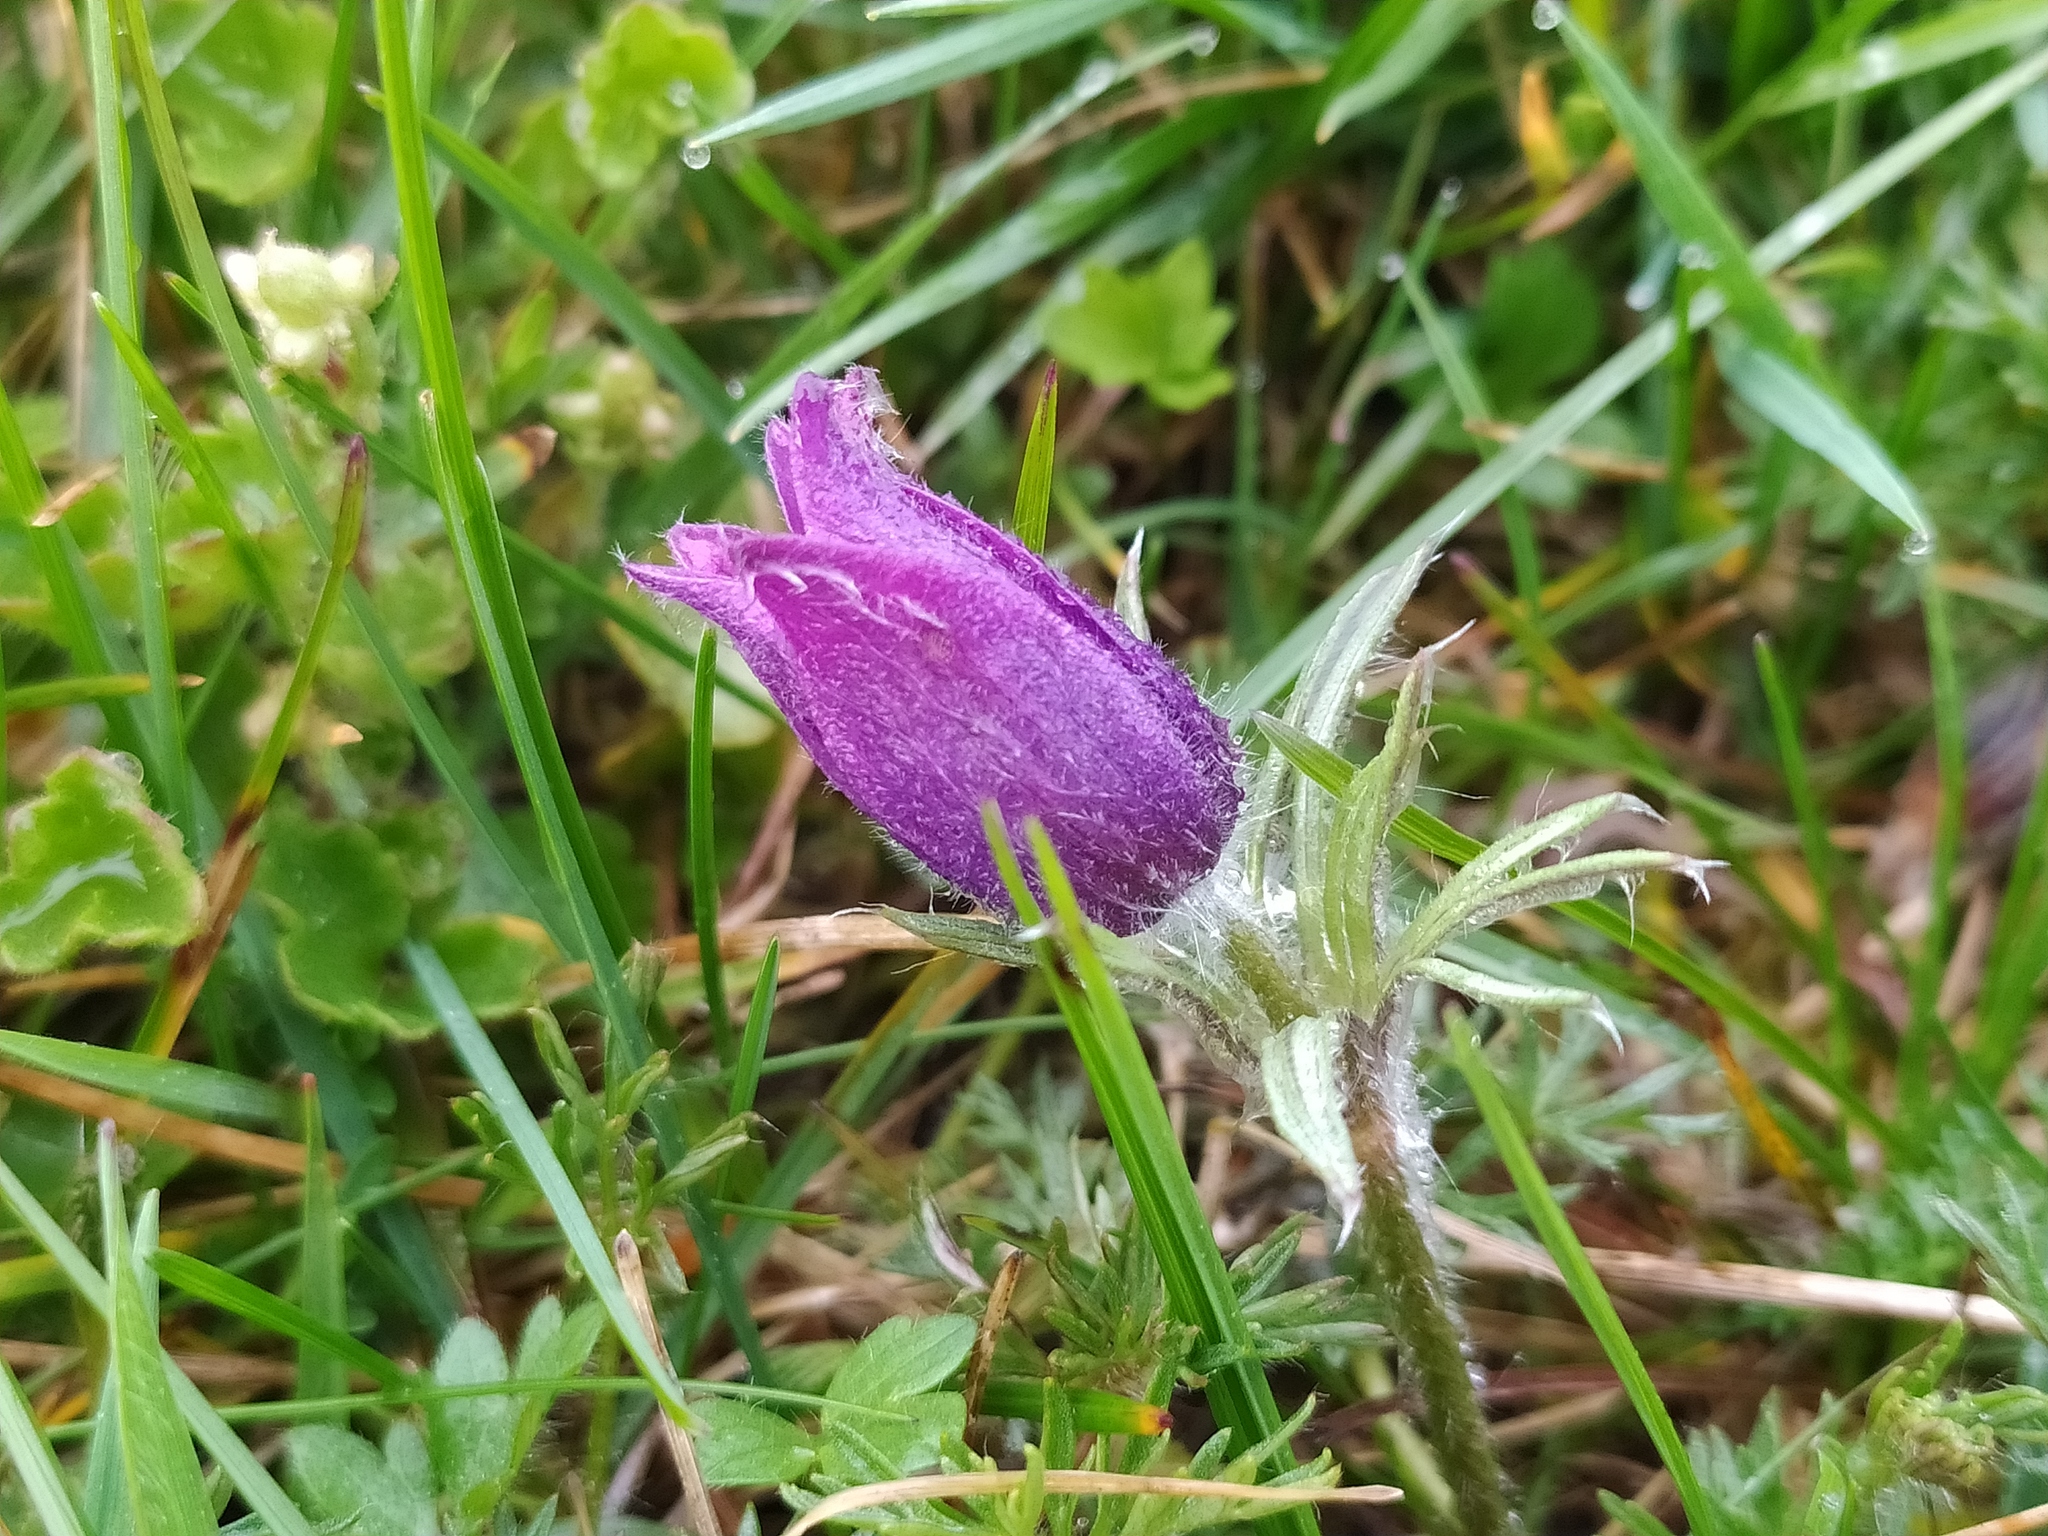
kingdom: Plantae
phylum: Tracheophyta
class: Magnoliopsida
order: Ranunculales
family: Ranunculaceae
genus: Pulsatilla
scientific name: Pulsatilla vulgaris
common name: Pasqueflower
